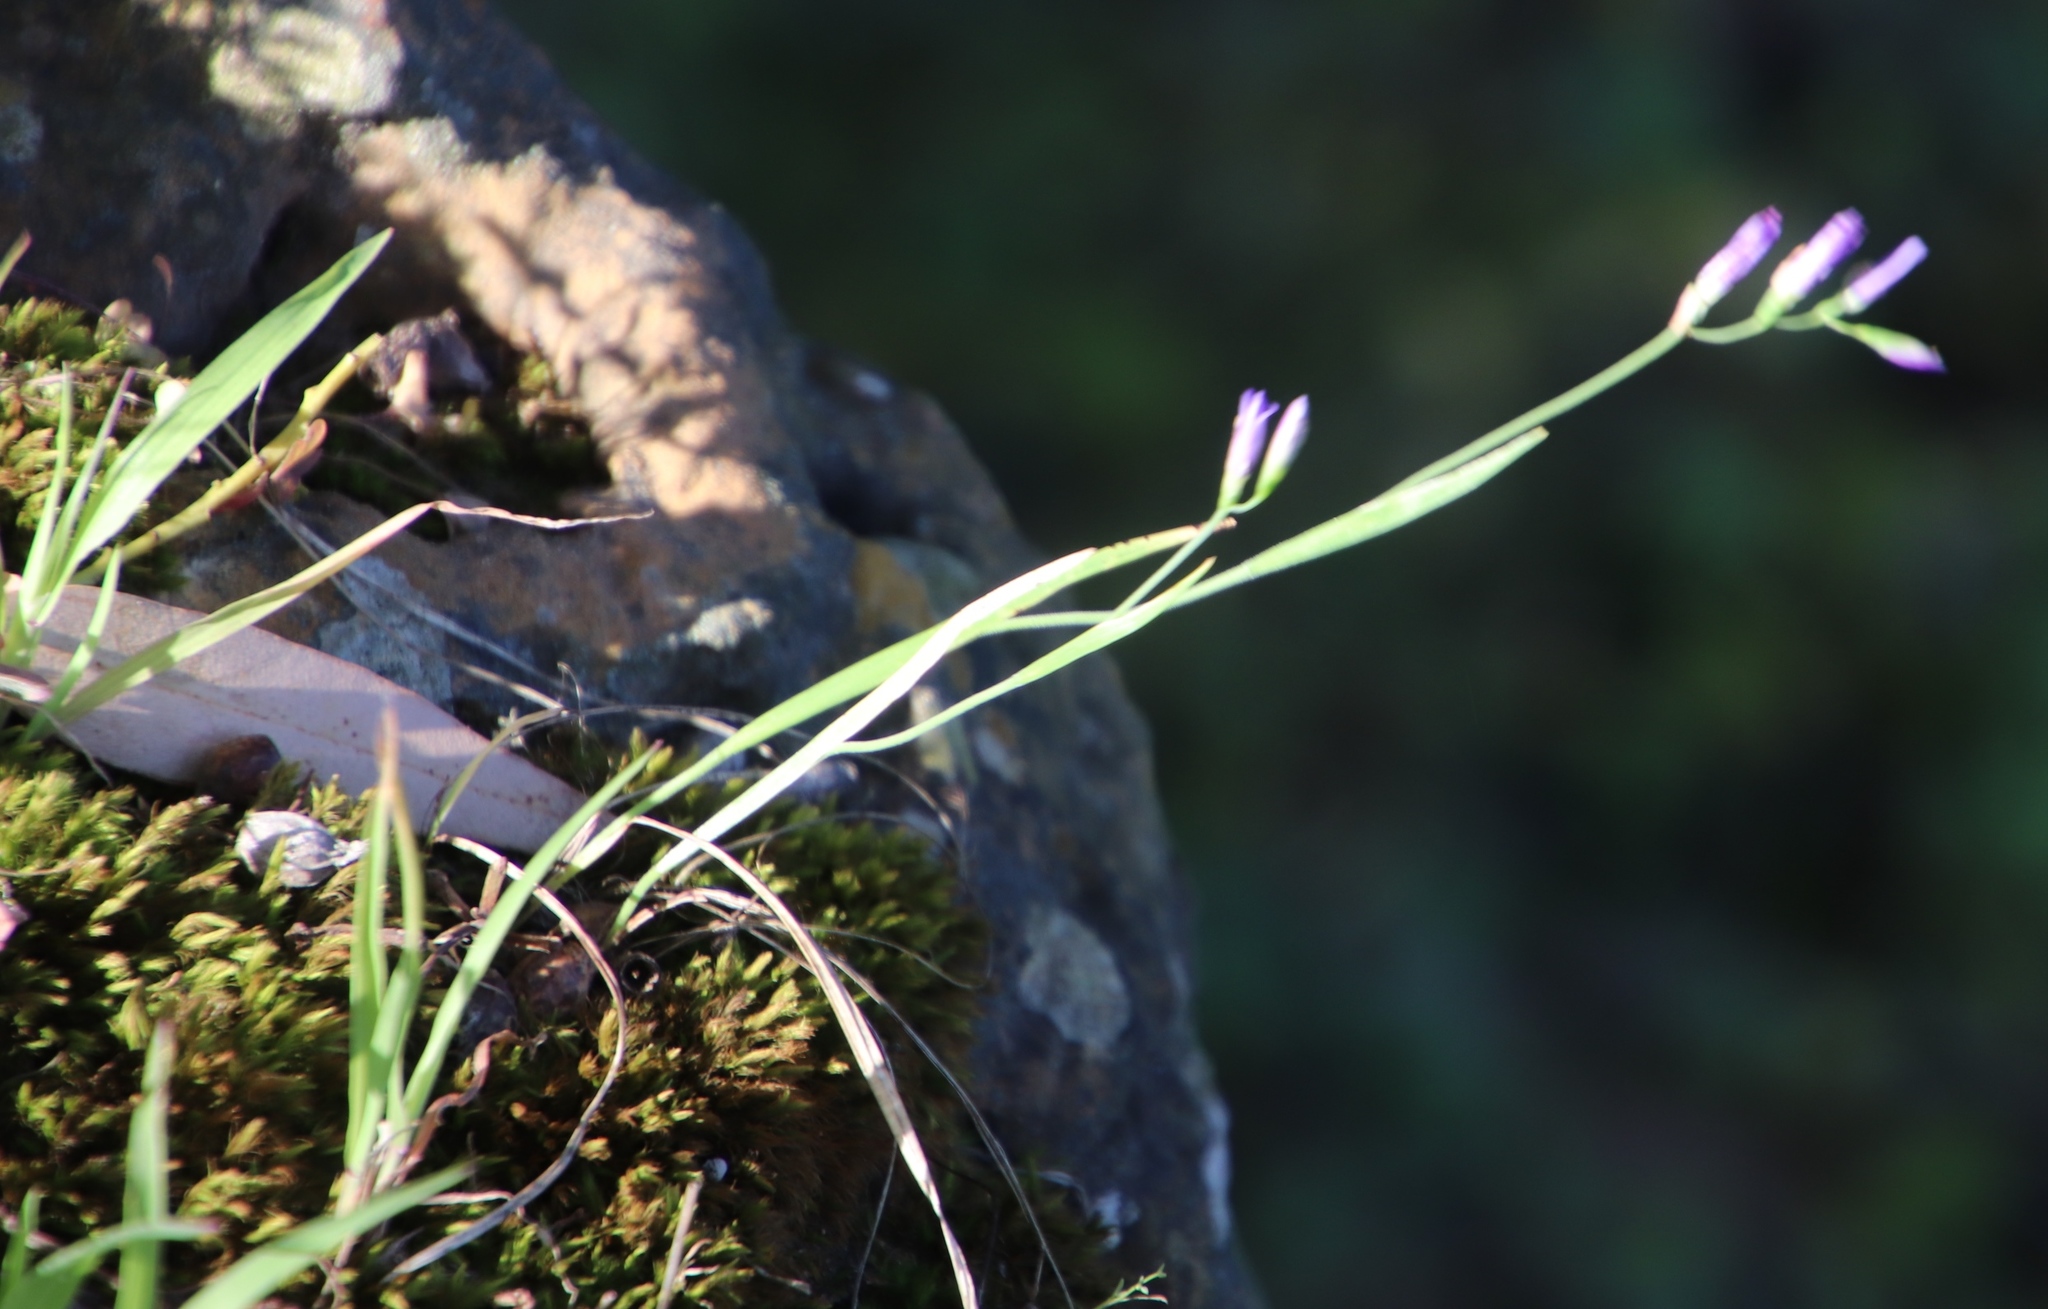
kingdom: Plantae
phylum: Tracheophyta
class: Liliopsida
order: Asparagales
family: Iridaceae
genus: Geissorhiza
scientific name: Geissorhiza aspera
